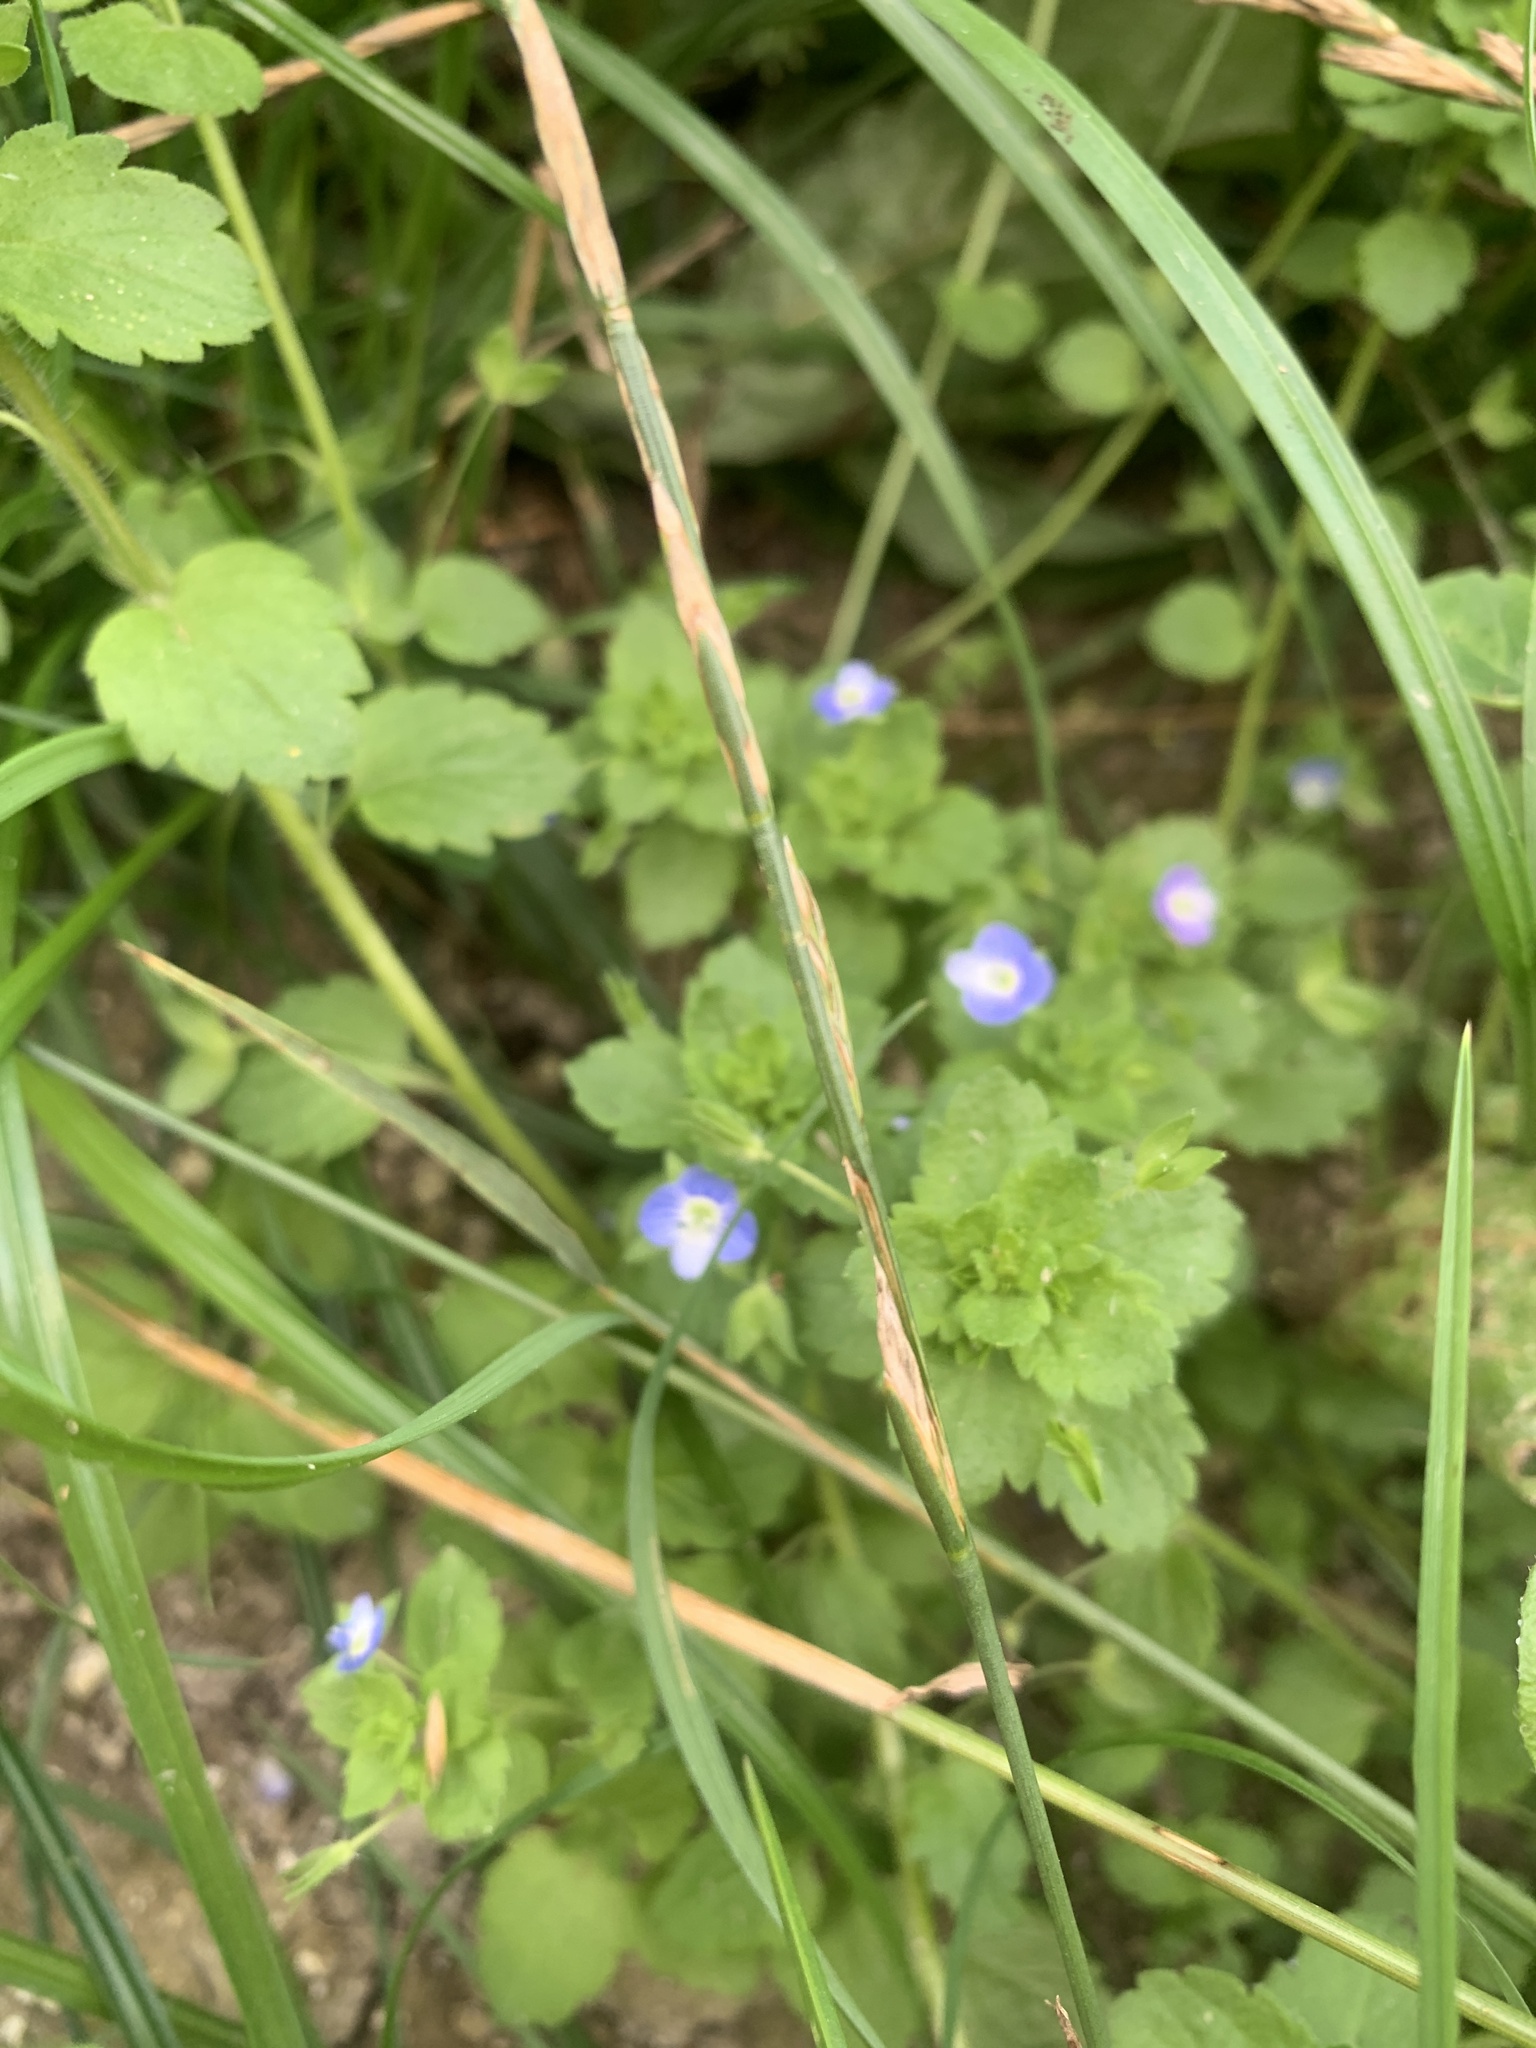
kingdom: Plantae
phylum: Tracheophyta
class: Magnoliopsida
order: Lamiales
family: Plantaginaceae
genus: Veronica
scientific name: Veronica polita
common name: Grey field-speedwell
